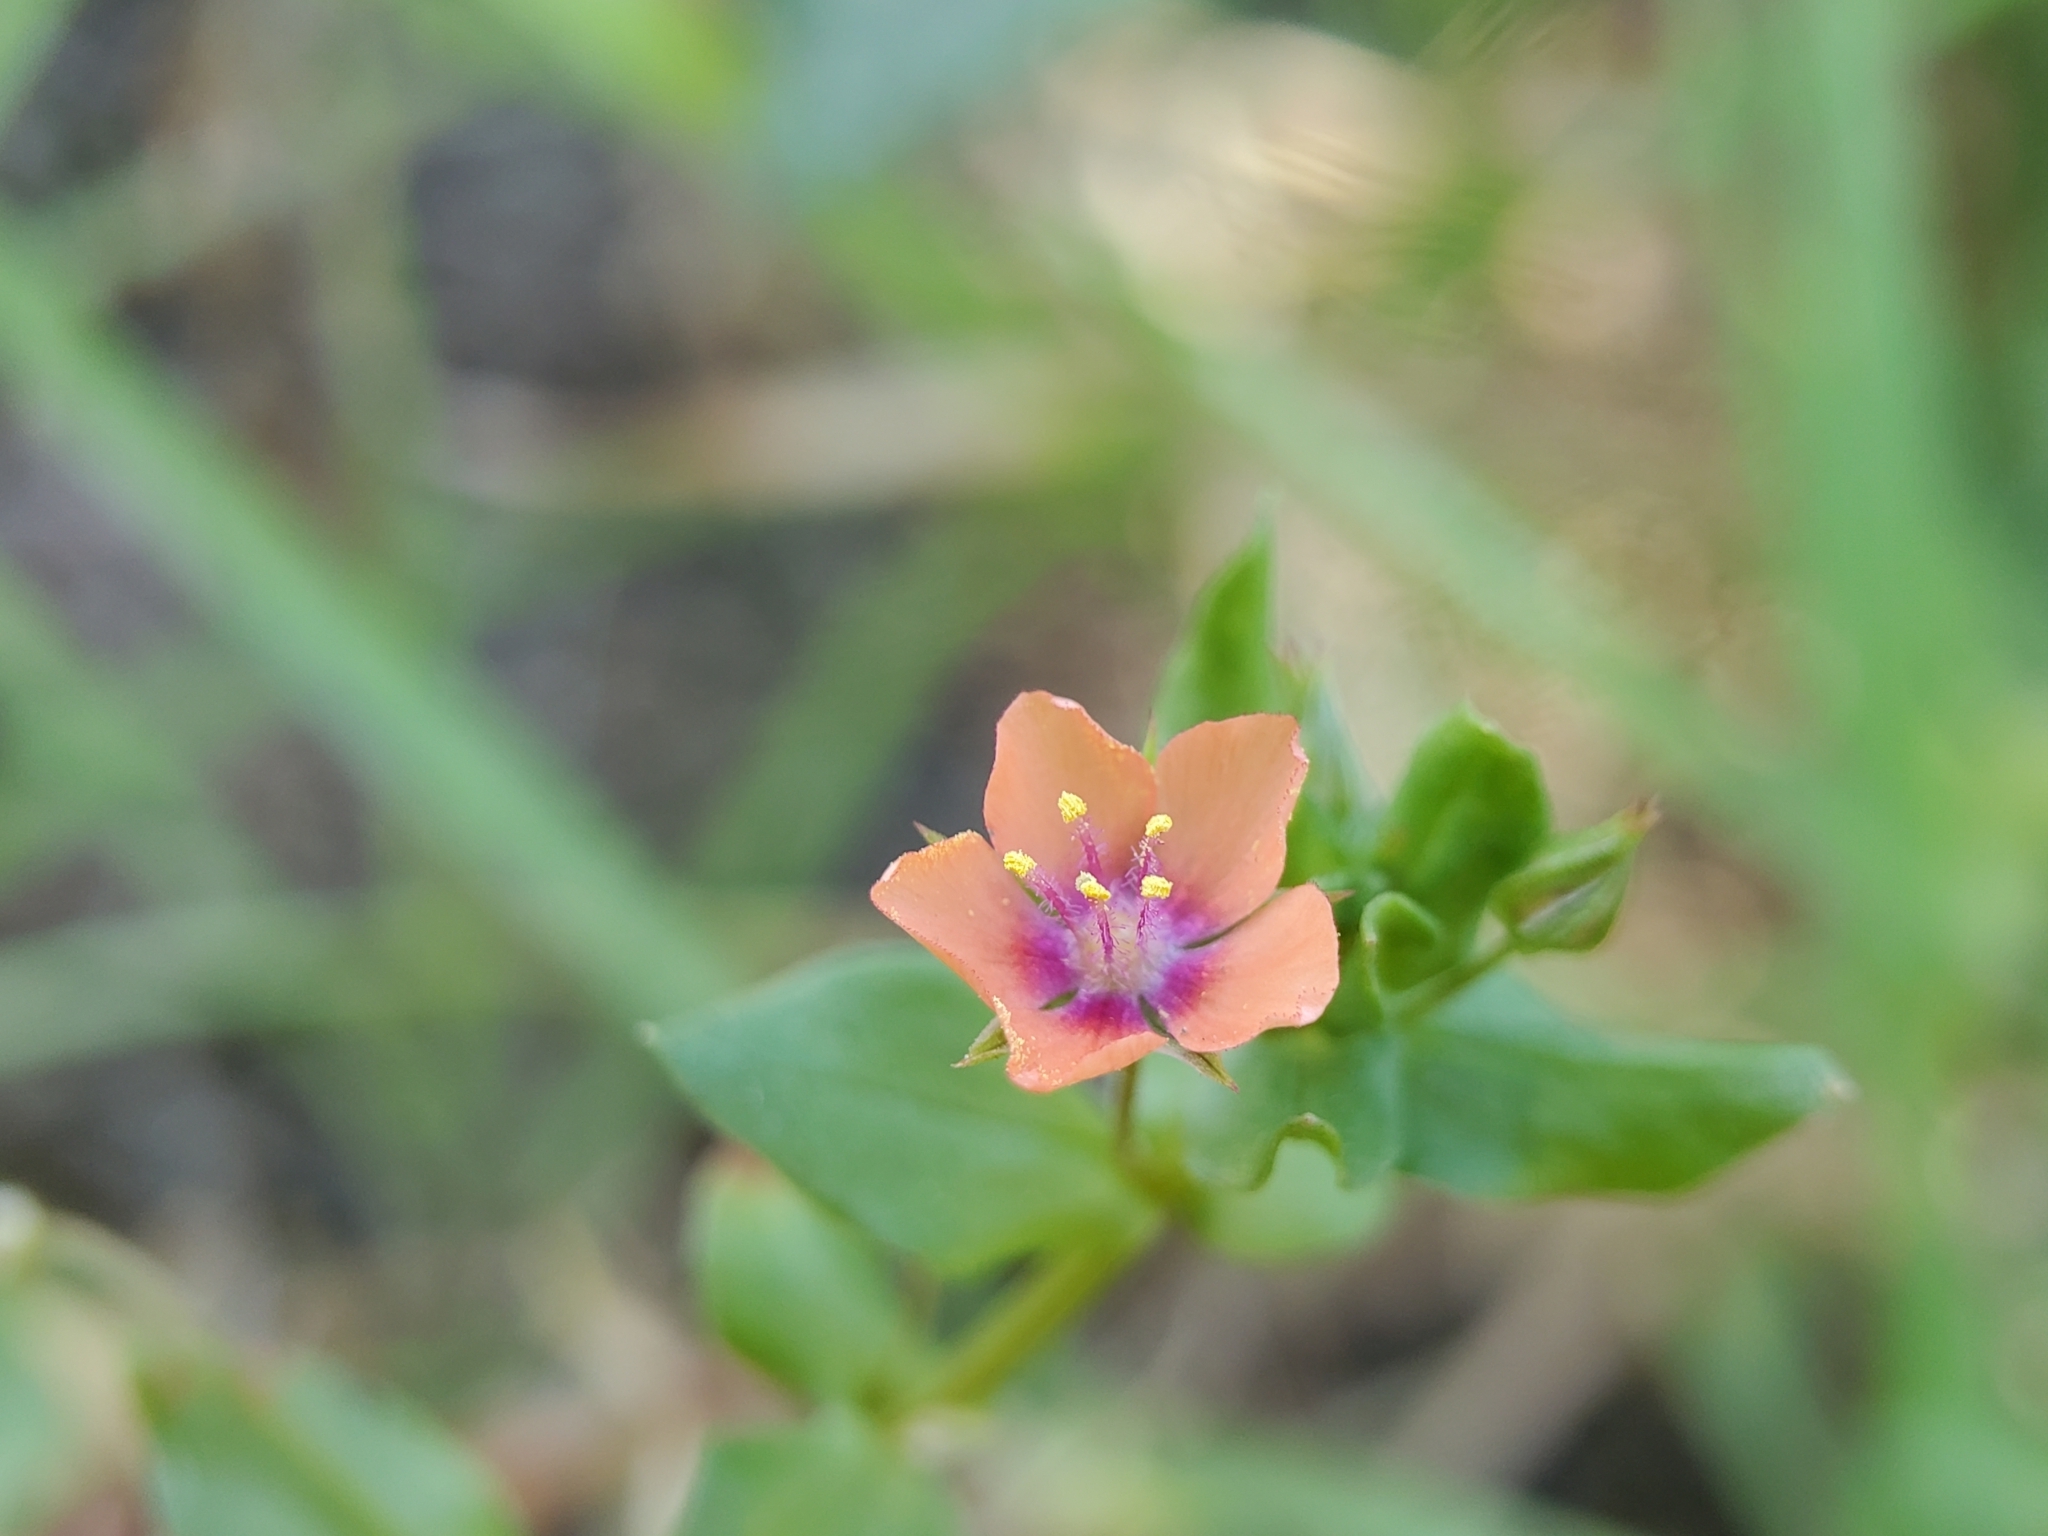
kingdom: Plantae
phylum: Tracheophyta
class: Magnoliopsida
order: Ericales
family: Primulaceae
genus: Lysimachia
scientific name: Lysimachia arvensis
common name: Scarlet pimpernel
